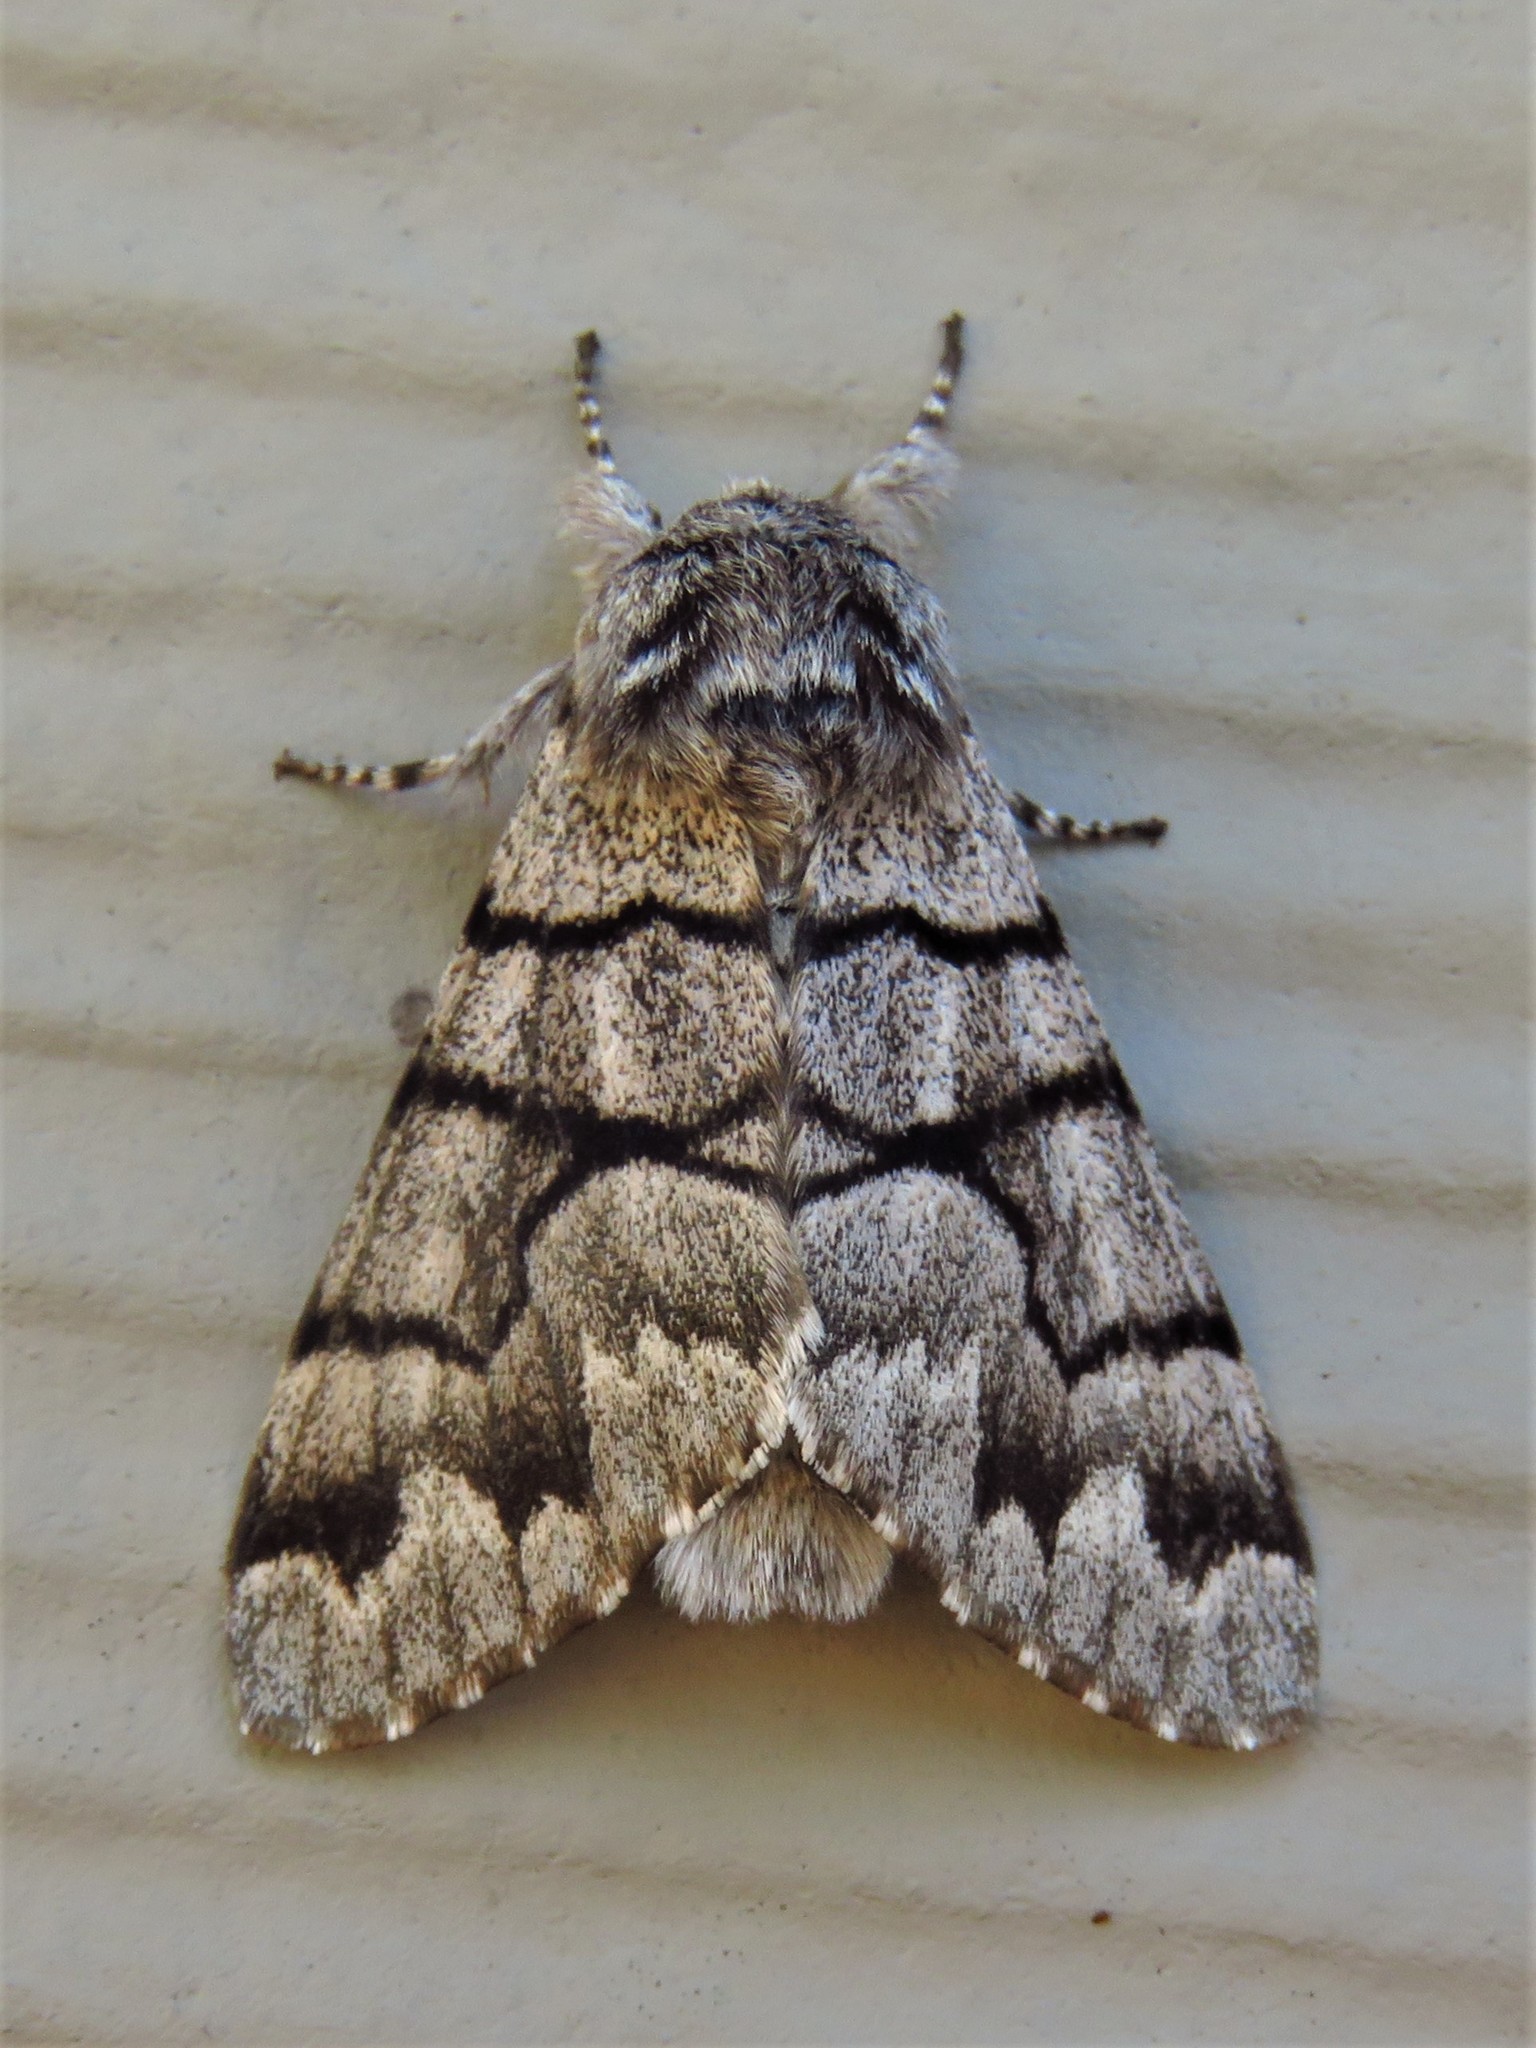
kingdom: Animalia
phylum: Arthropoda
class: Insecta
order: Lepidoptera
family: Noctuidae
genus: Panthea
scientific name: Panthea furcilla
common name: Eastern panthea moth
